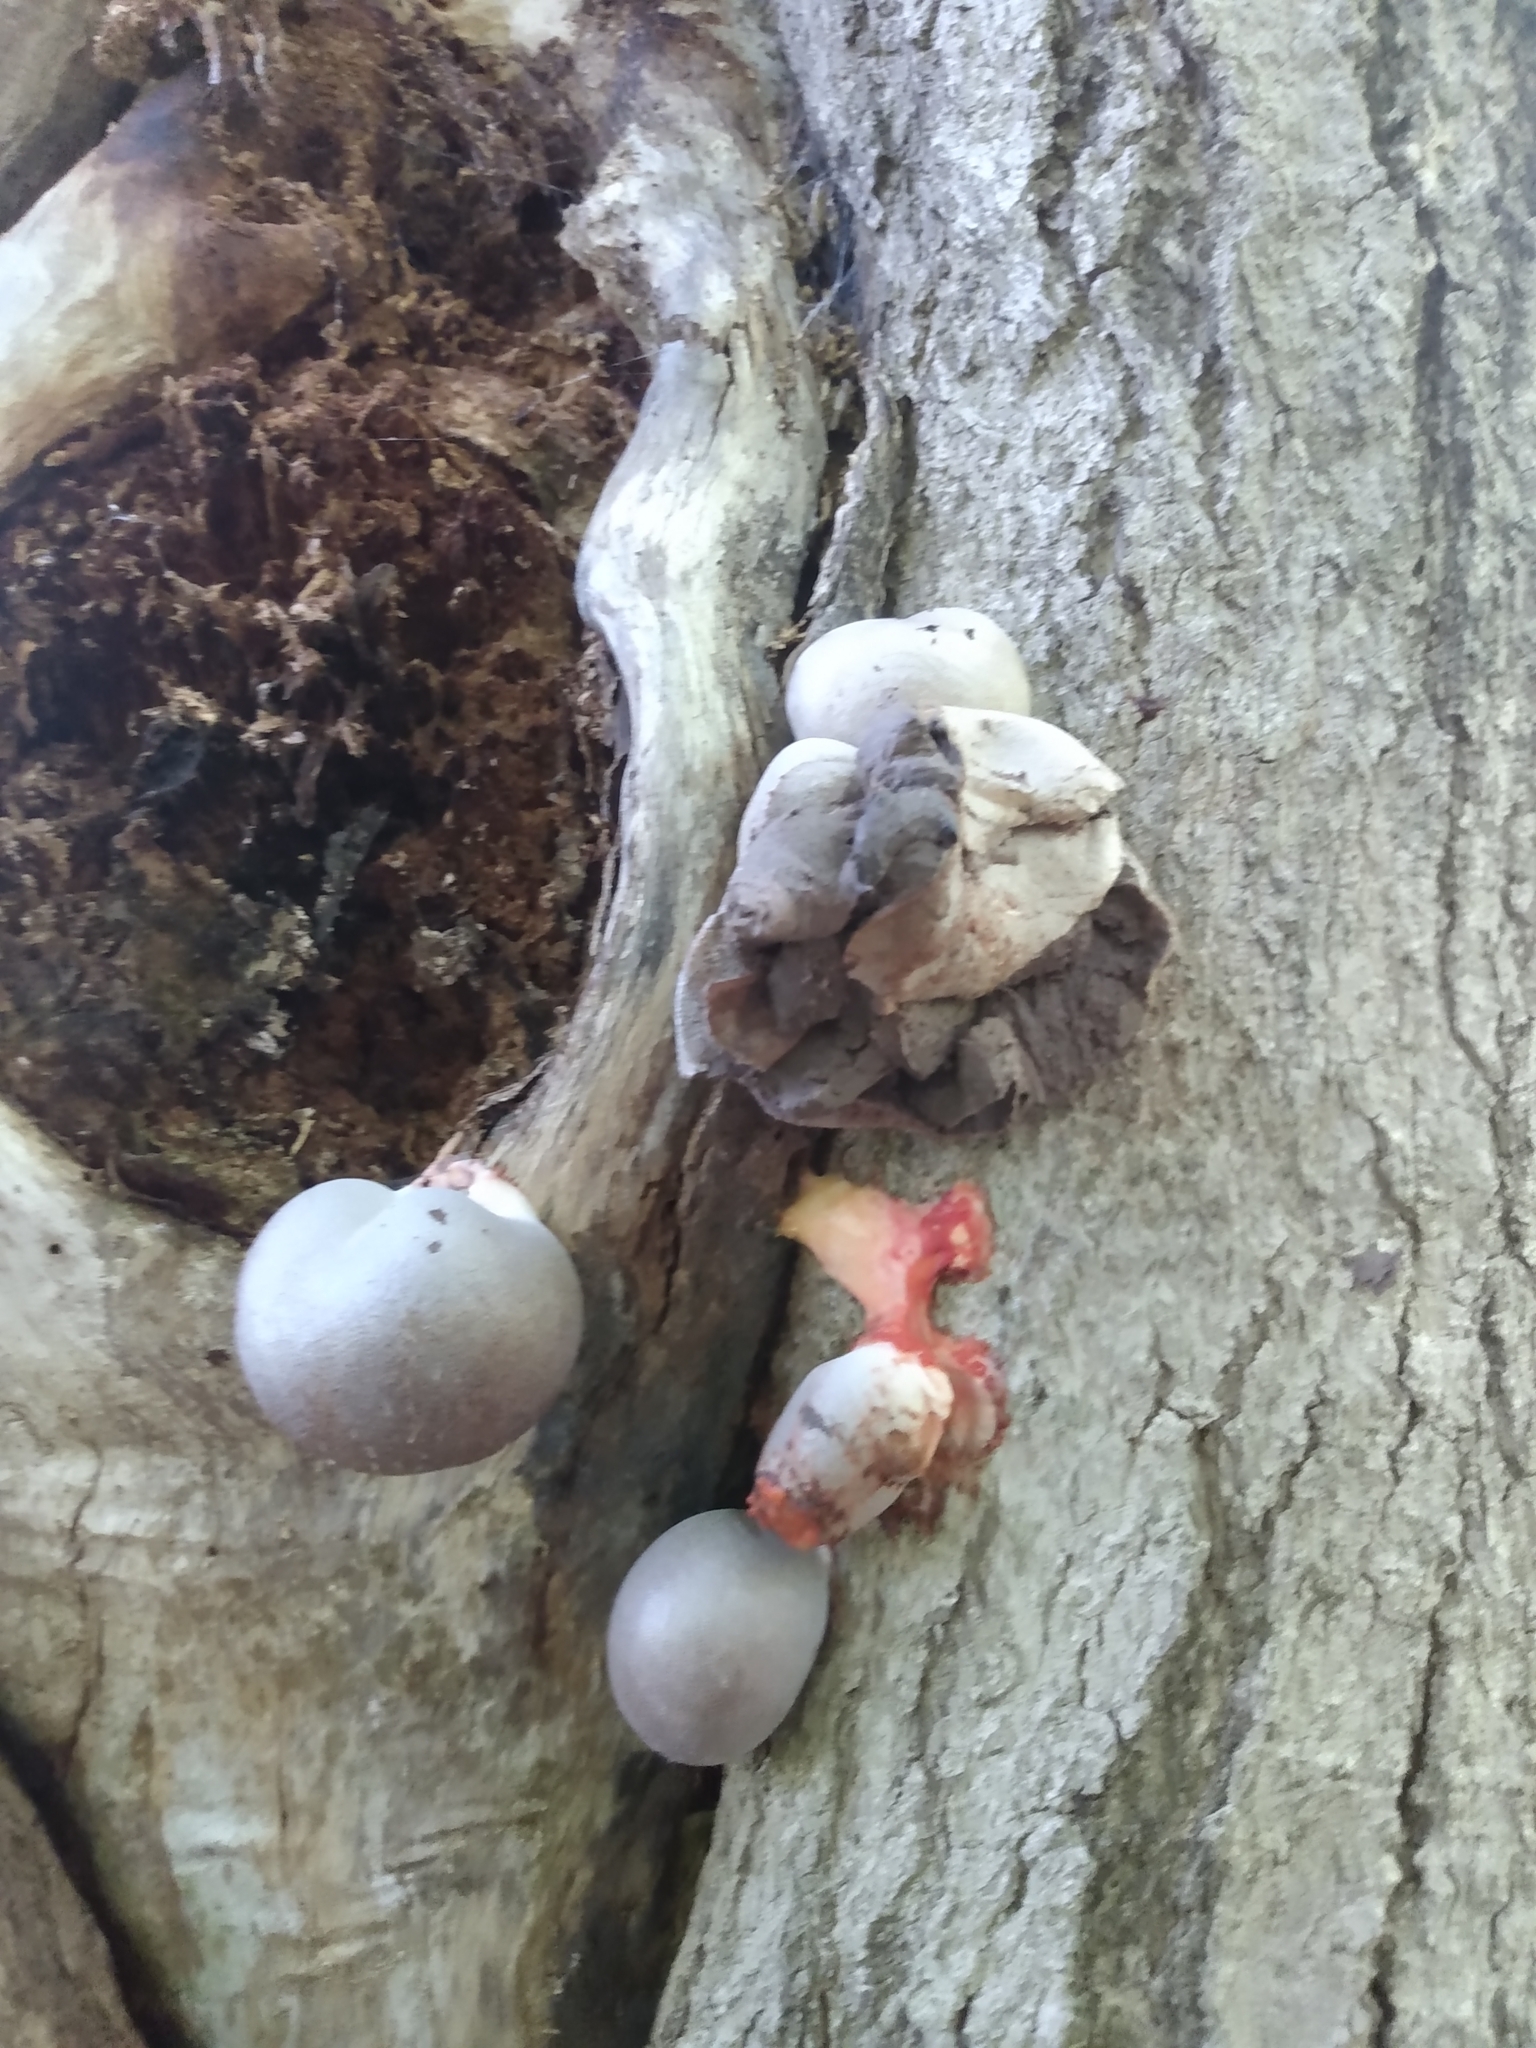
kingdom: Protozoa
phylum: Mycetozoa
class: Myxomycetes
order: Cribrariales
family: Tubiferaceae
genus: Lycogala
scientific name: Lycogala flavofuscum
